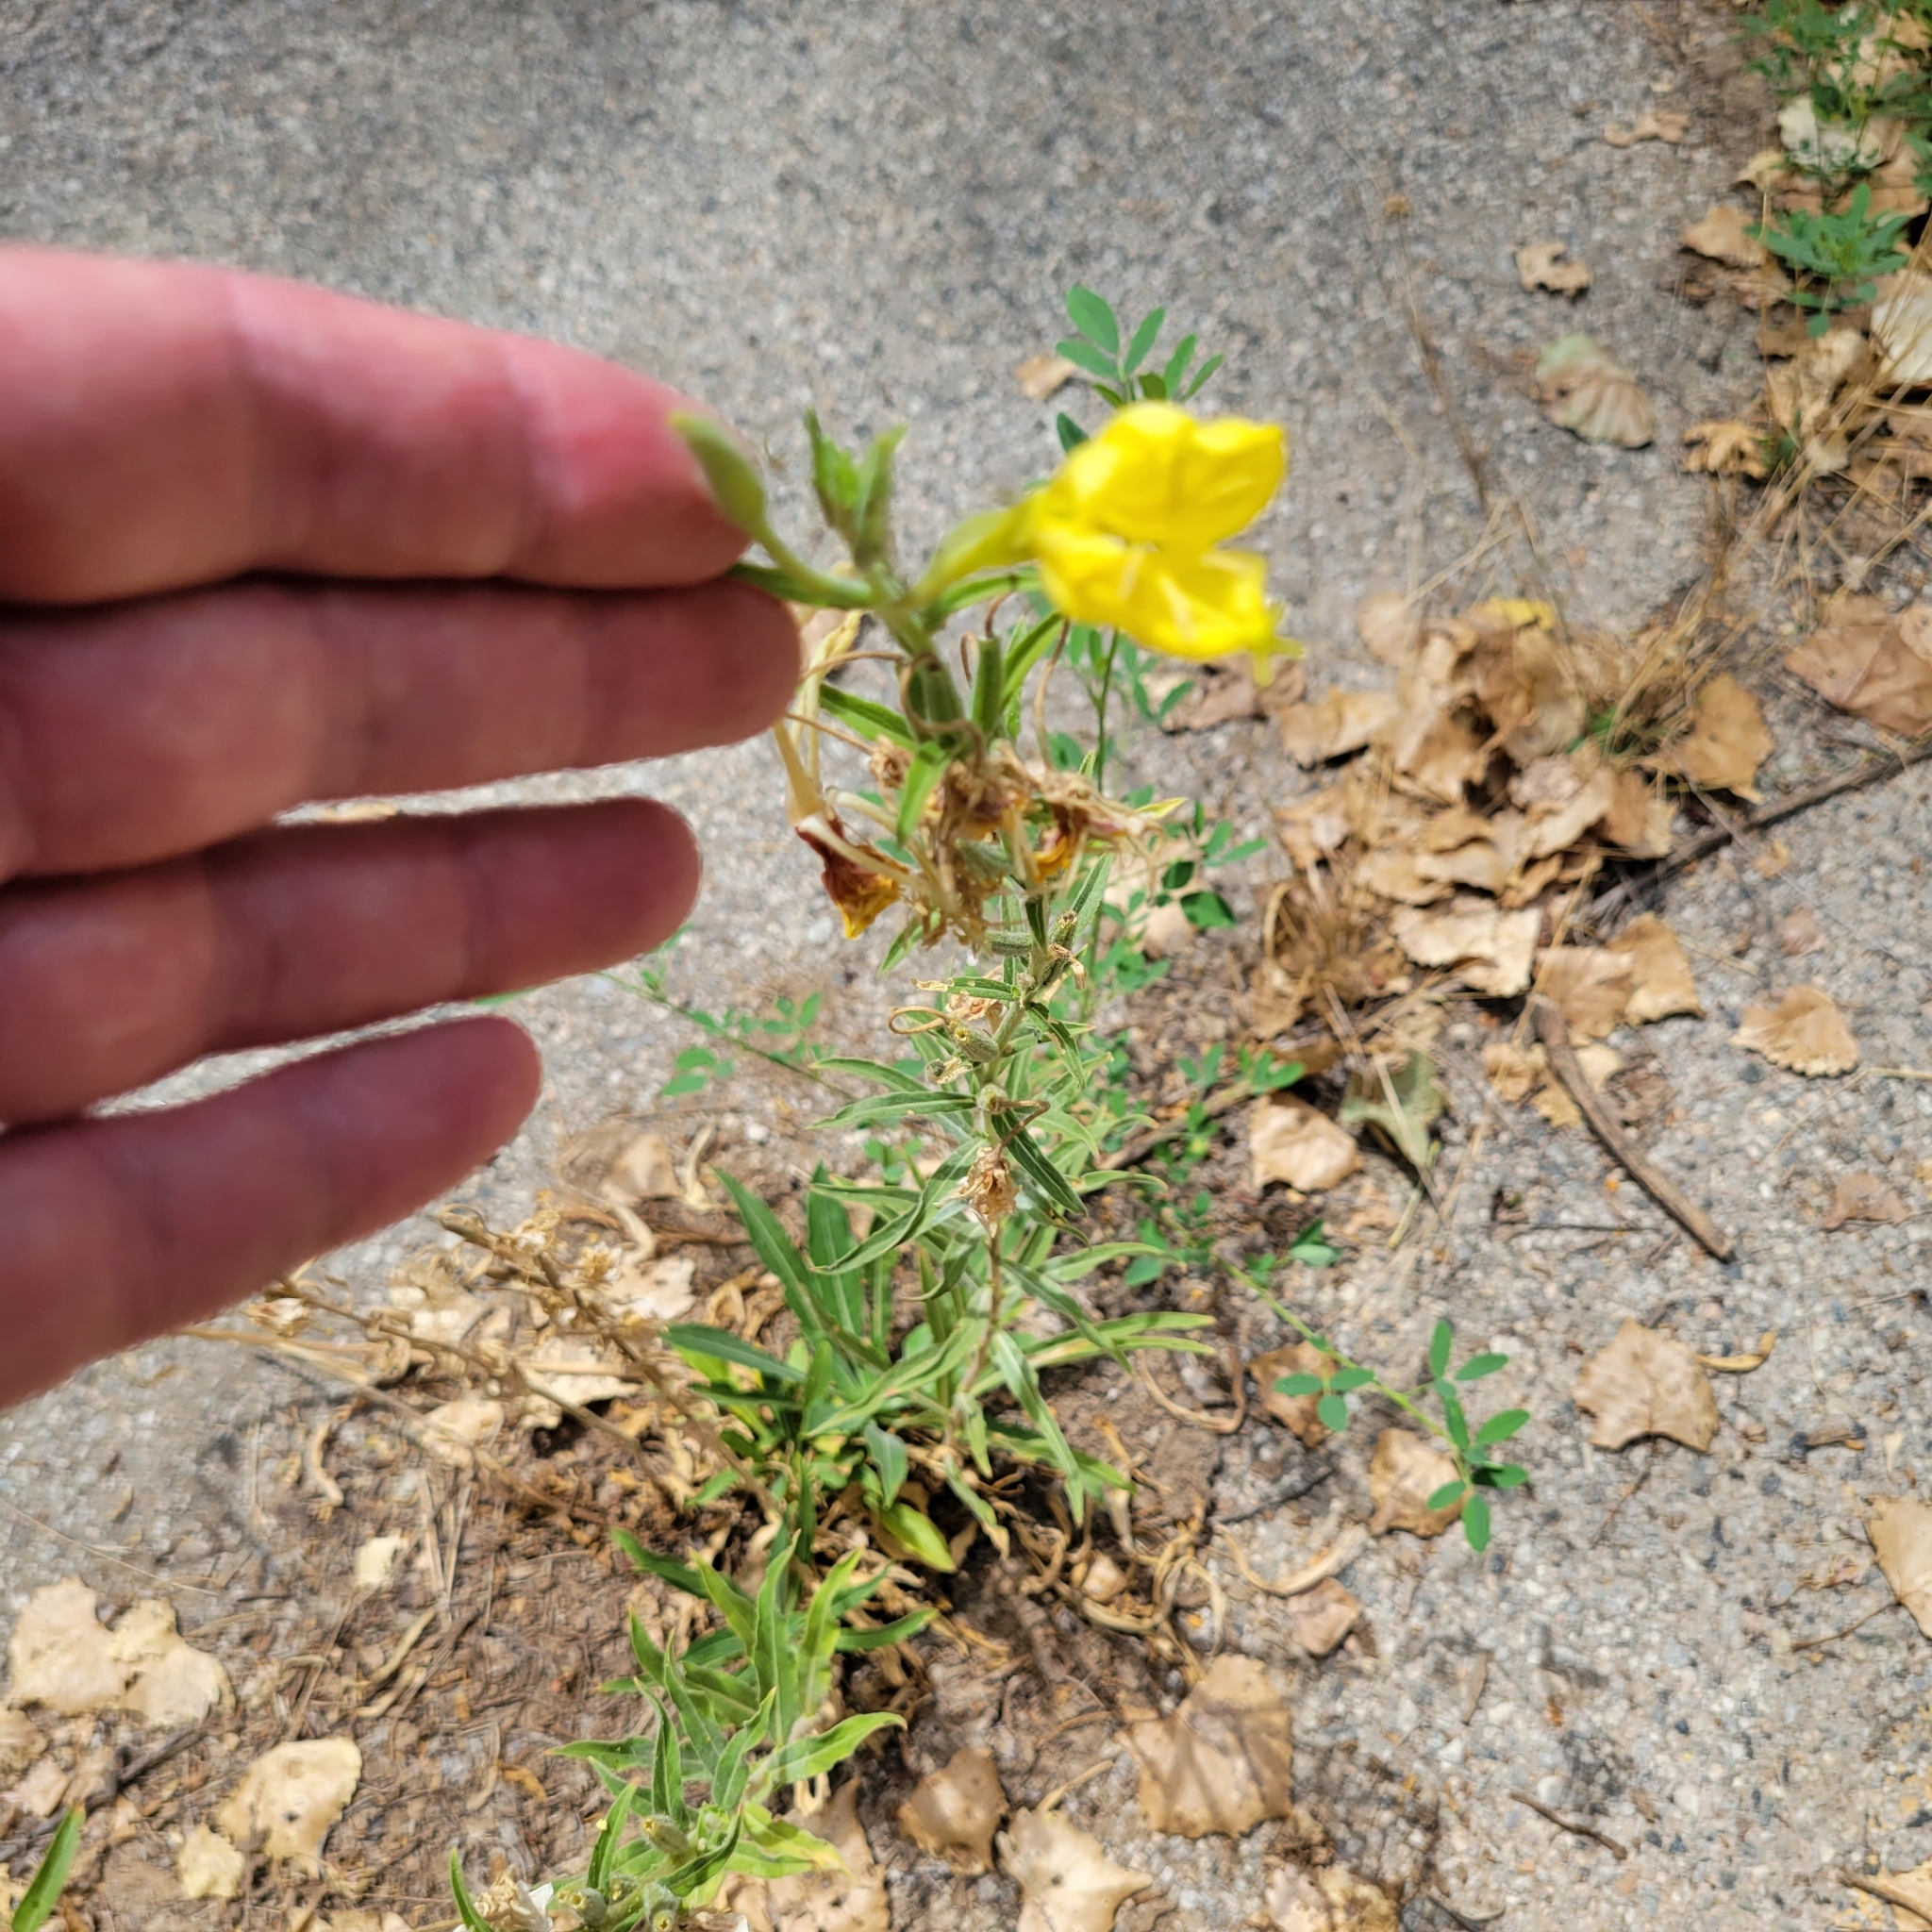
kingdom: Plantae
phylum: Tracheophyta
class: Magnoliopsida
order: Myrtales
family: Onagraceae
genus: Oenothera
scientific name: Oenothera elata
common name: Hooker's evening-primrose
